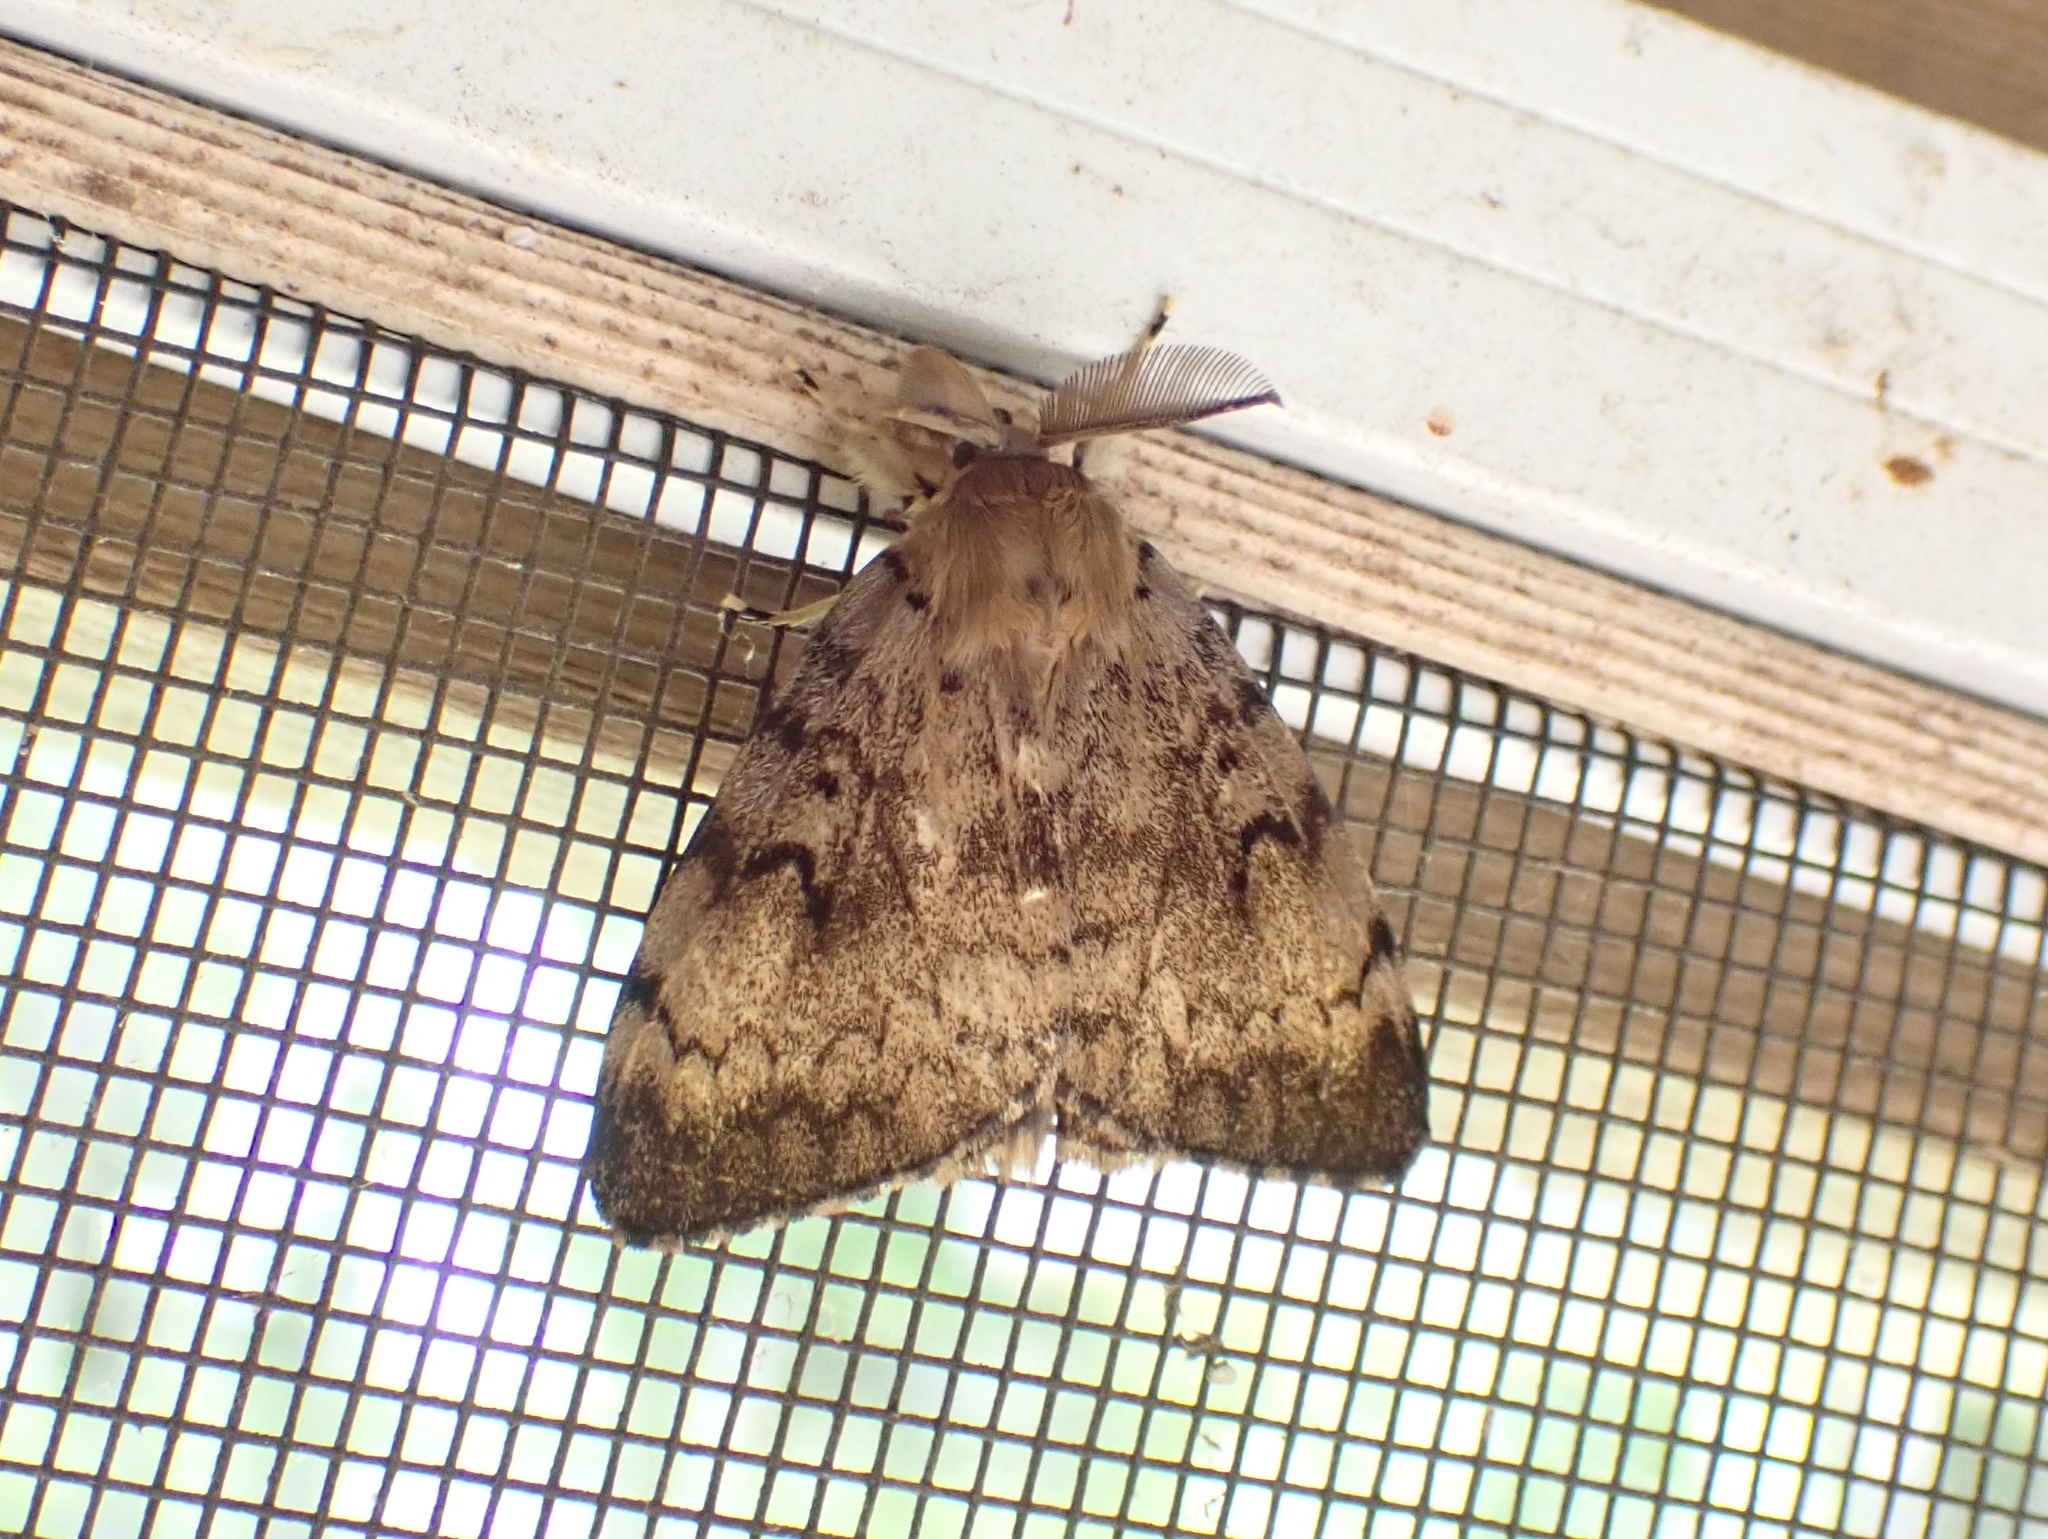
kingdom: Animalia
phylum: Arthropoda
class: Insecta
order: Lepidoptera
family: Erebidae
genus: Lymantria
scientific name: Lymantria dispar
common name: Gypsy moth
